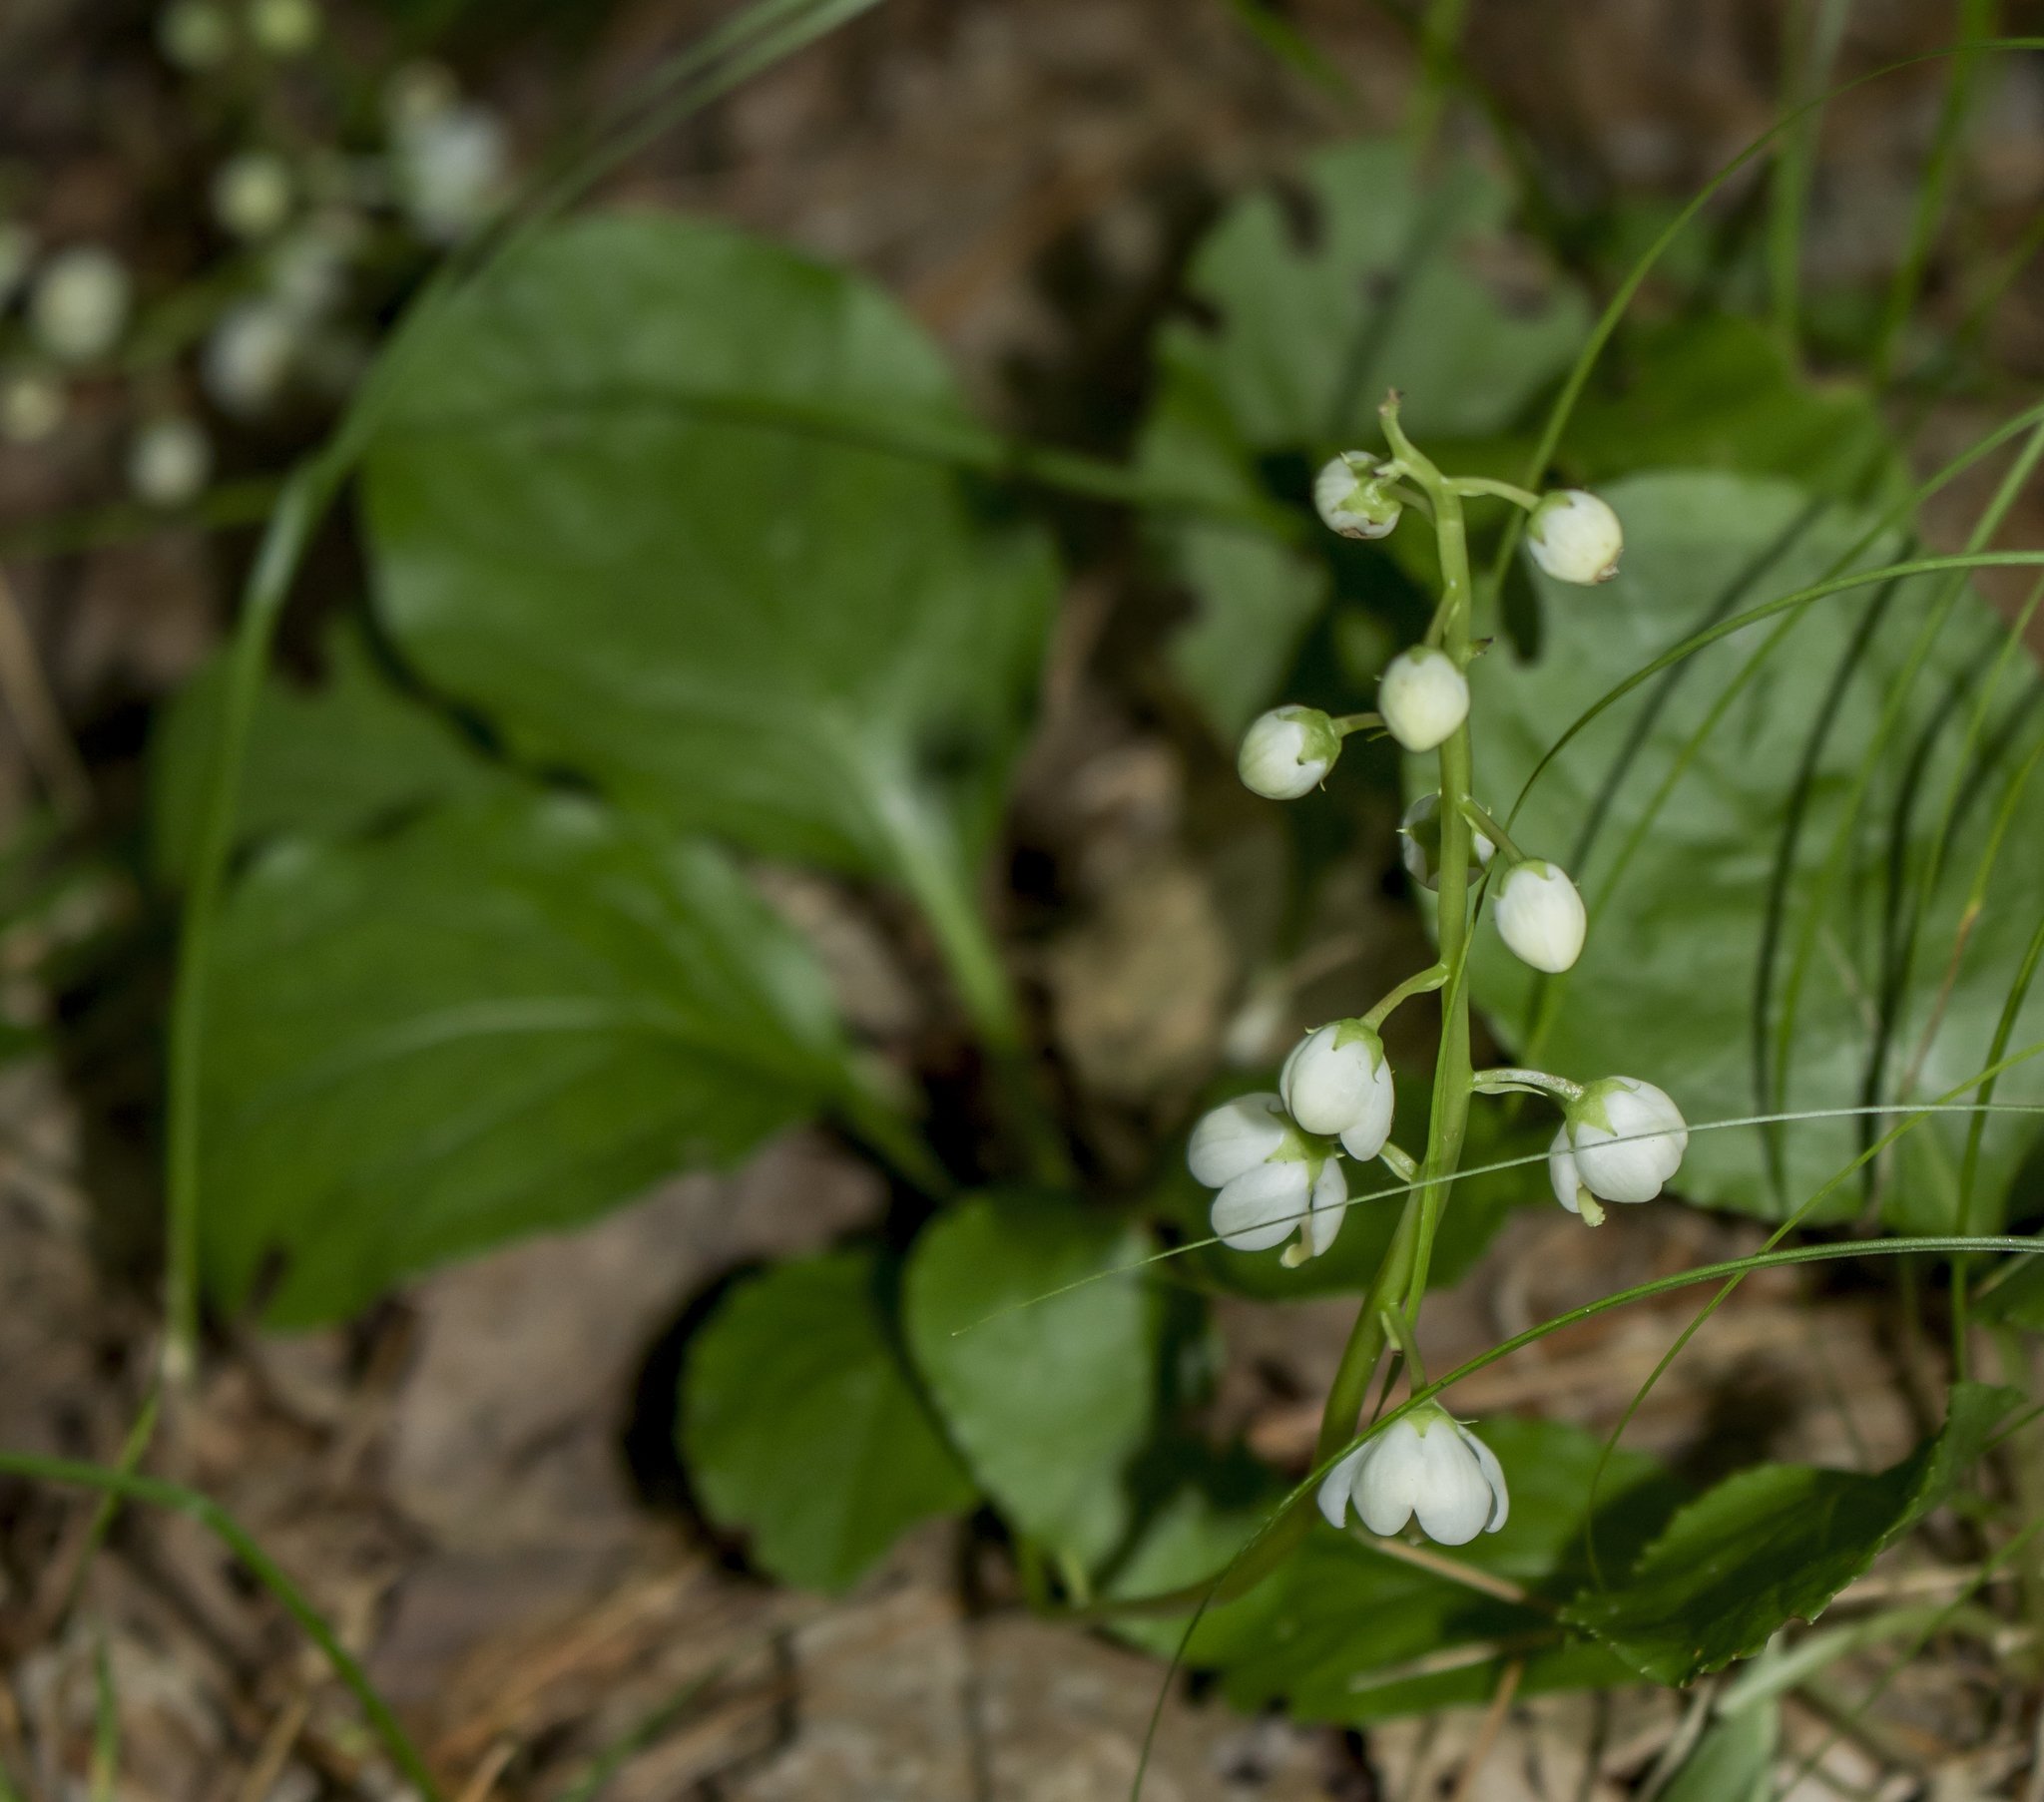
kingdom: Plantae
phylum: Tracheophyta
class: Magnoliopsida
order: Ericales
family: Ericaceae
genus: Pyrola
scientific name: Pyrola elliptica
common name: Shinleaf
